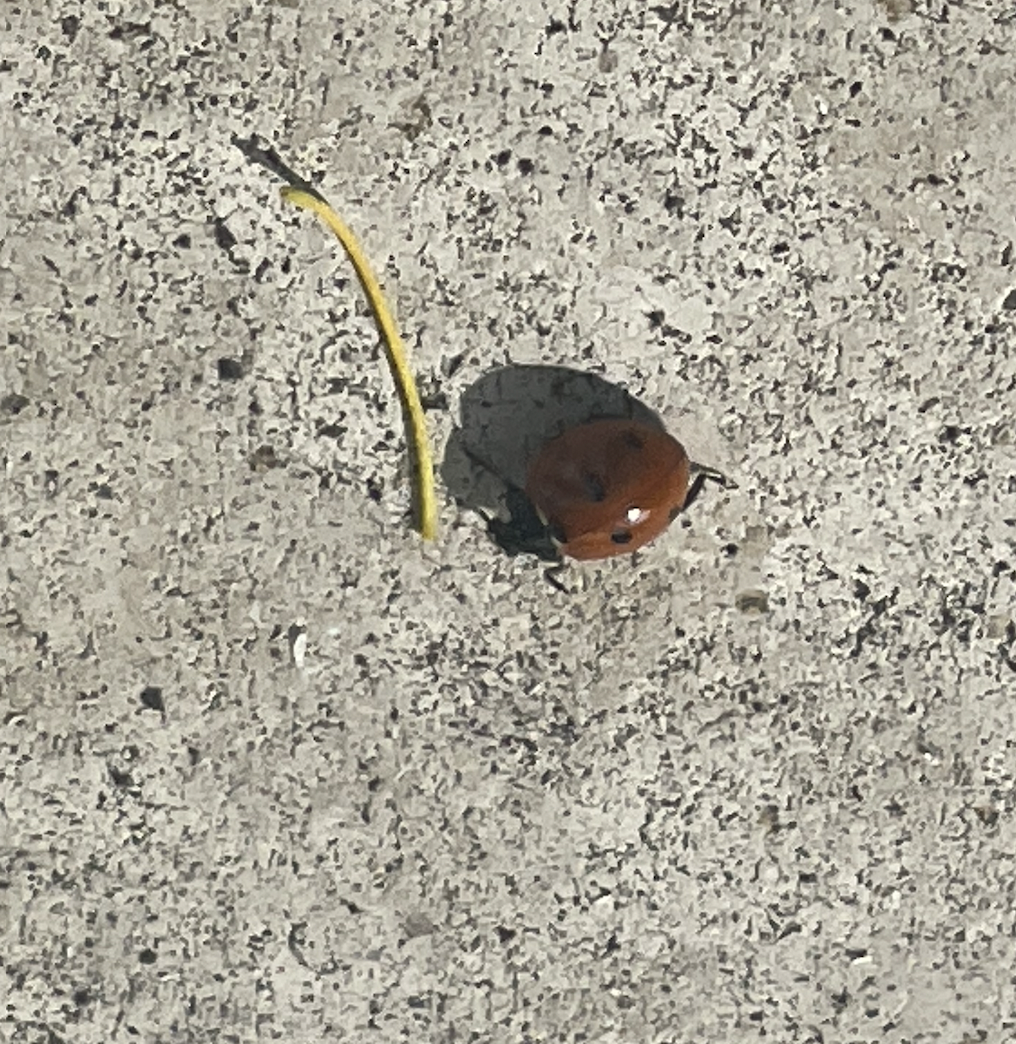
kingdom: Animalia
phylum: Arthropoda
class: Insecta
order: Coleoptera
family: Coccinellidae
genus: Coccinella
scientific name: Coccinella septempunctata
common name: Sevenspotted lady beetle
